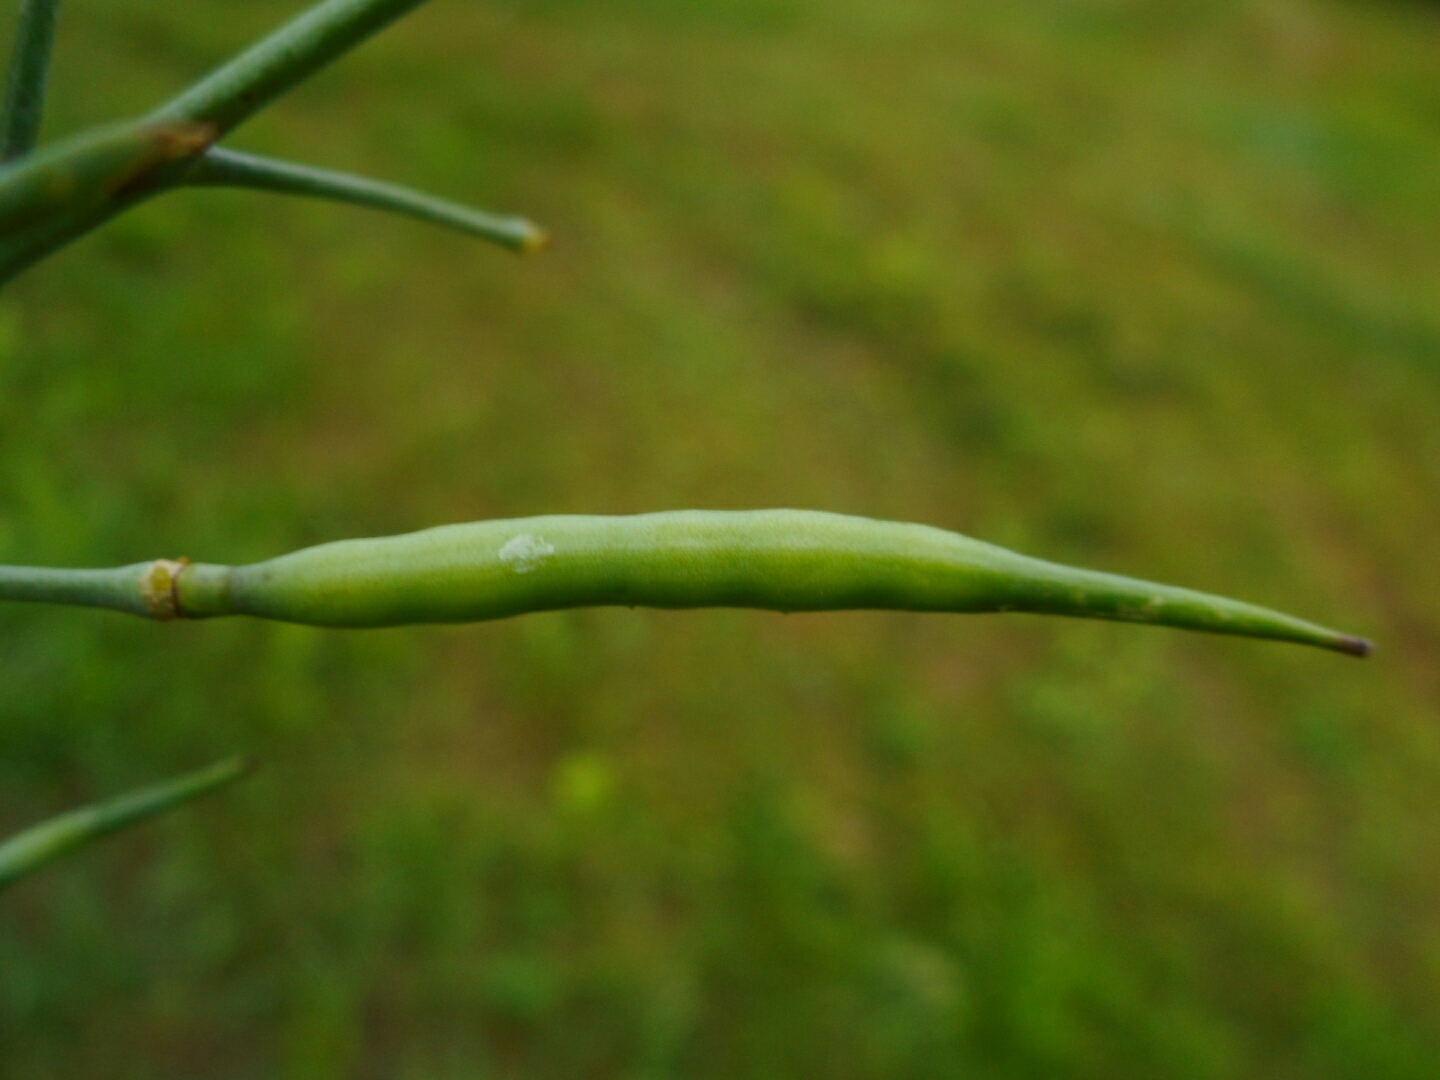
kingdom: Plantae
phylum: Tracheophyta
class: Magnoliopsida
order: Brassicales
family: Brassicaceae
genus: Raphanus
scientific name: Raphanus raphanistrum
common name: Wild radish
